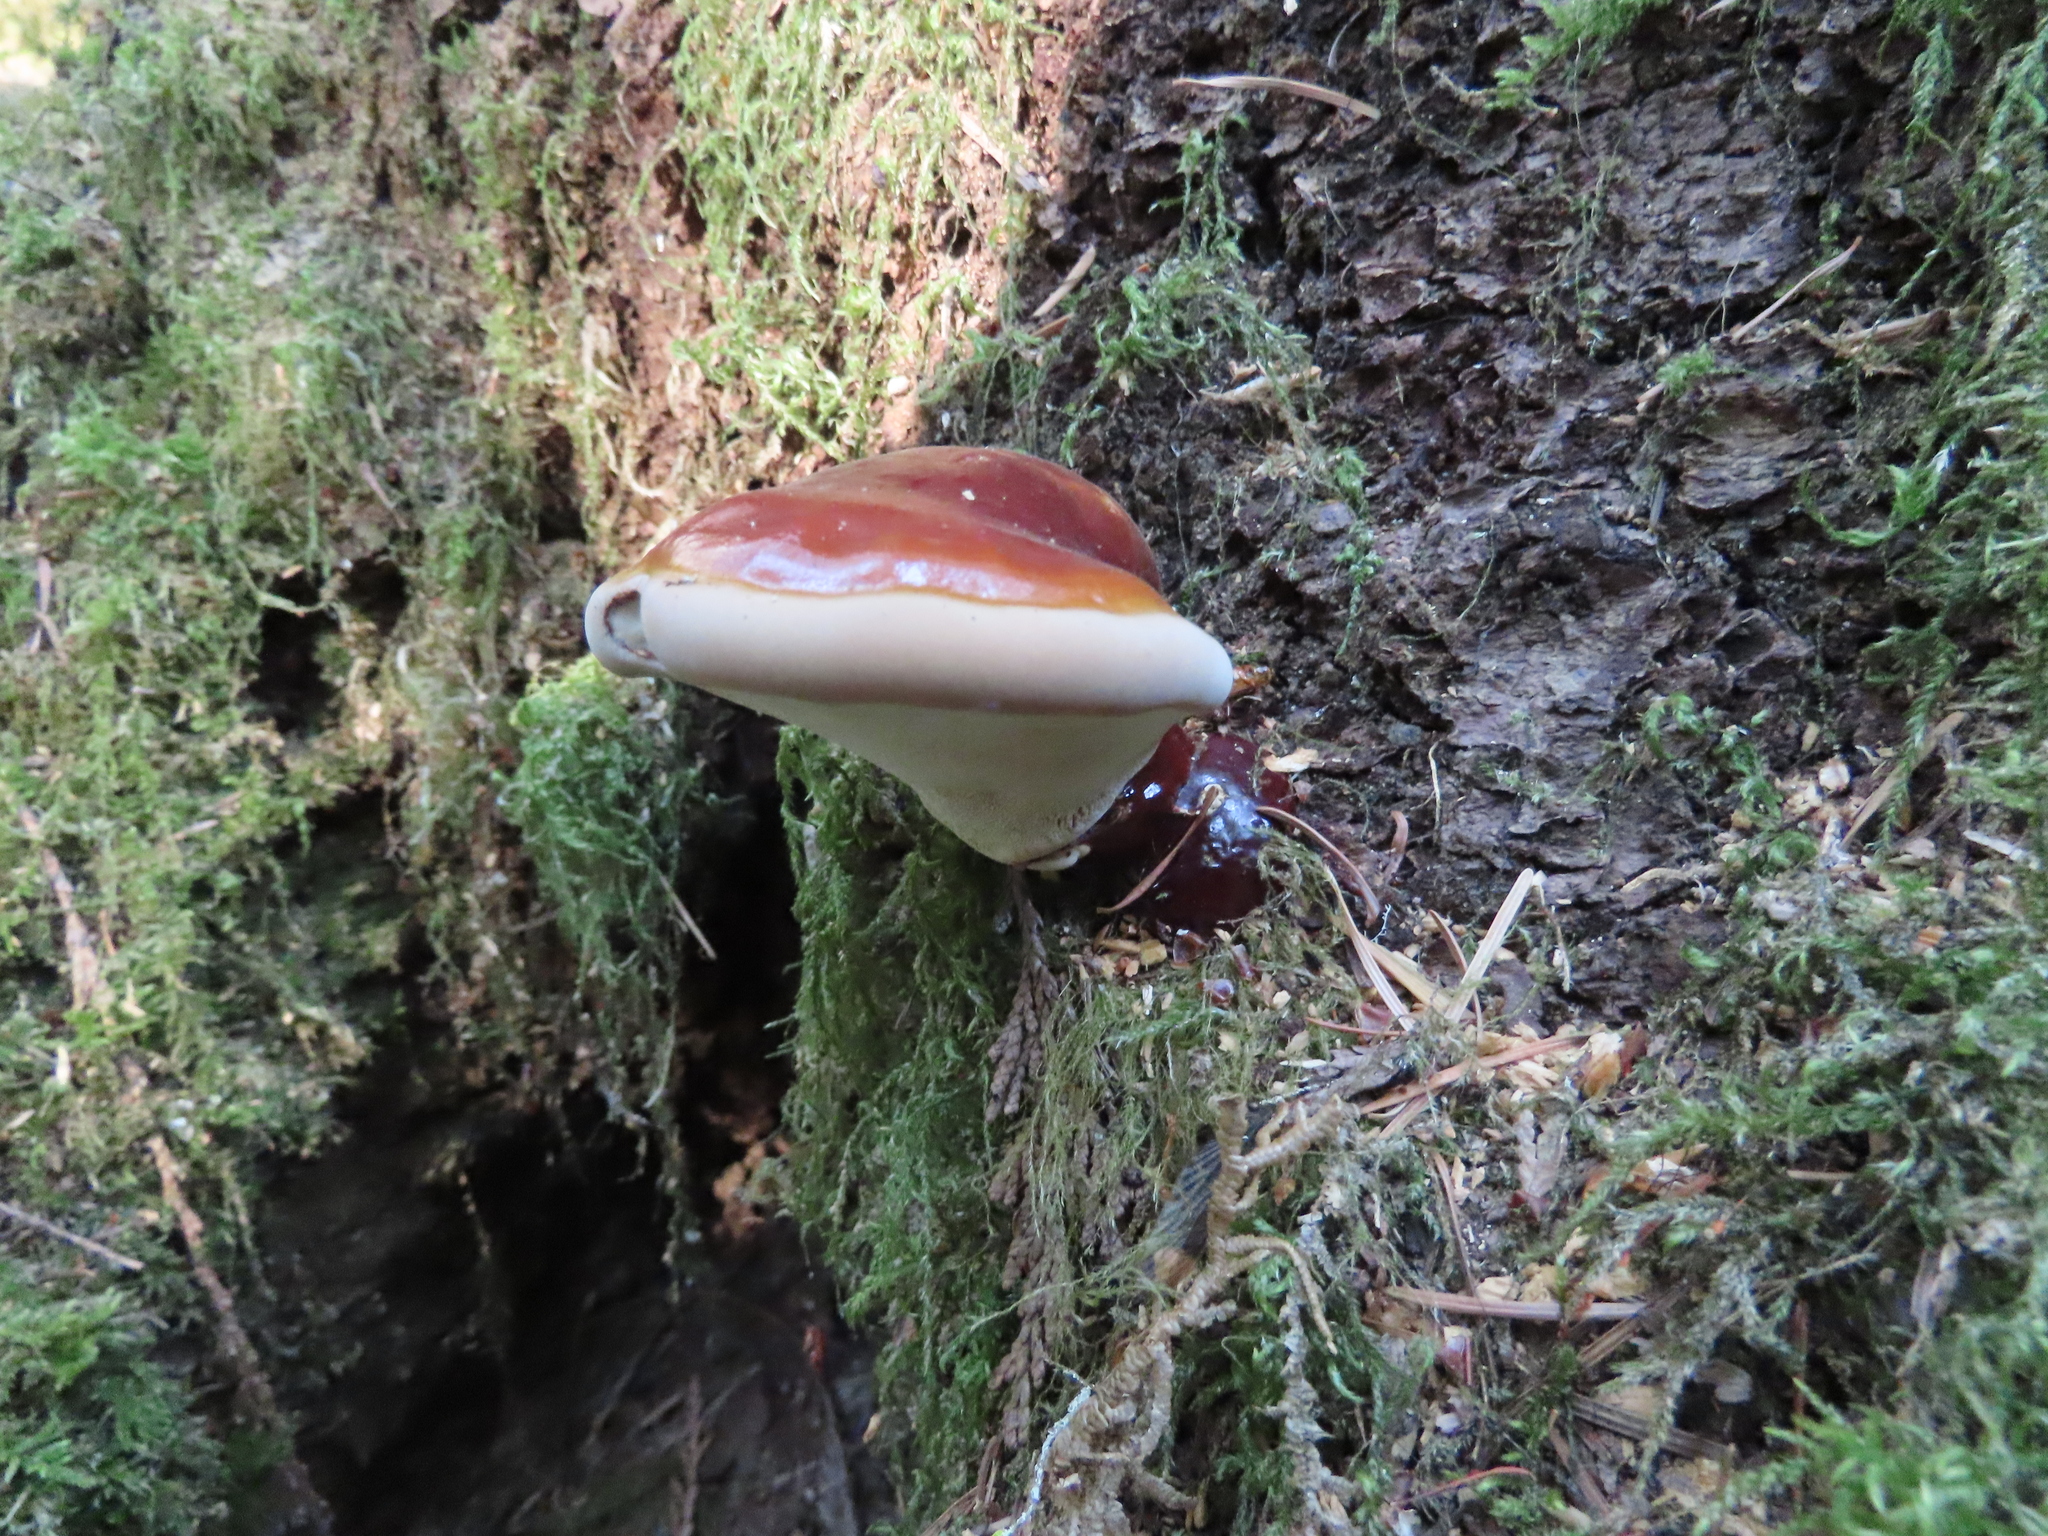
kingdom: Fungi
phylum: Basidiomycota
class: Agaricomycetes
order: Polyporales
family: Polyporaceae
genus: Ganoderma
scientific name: Ganoderma oregonense
